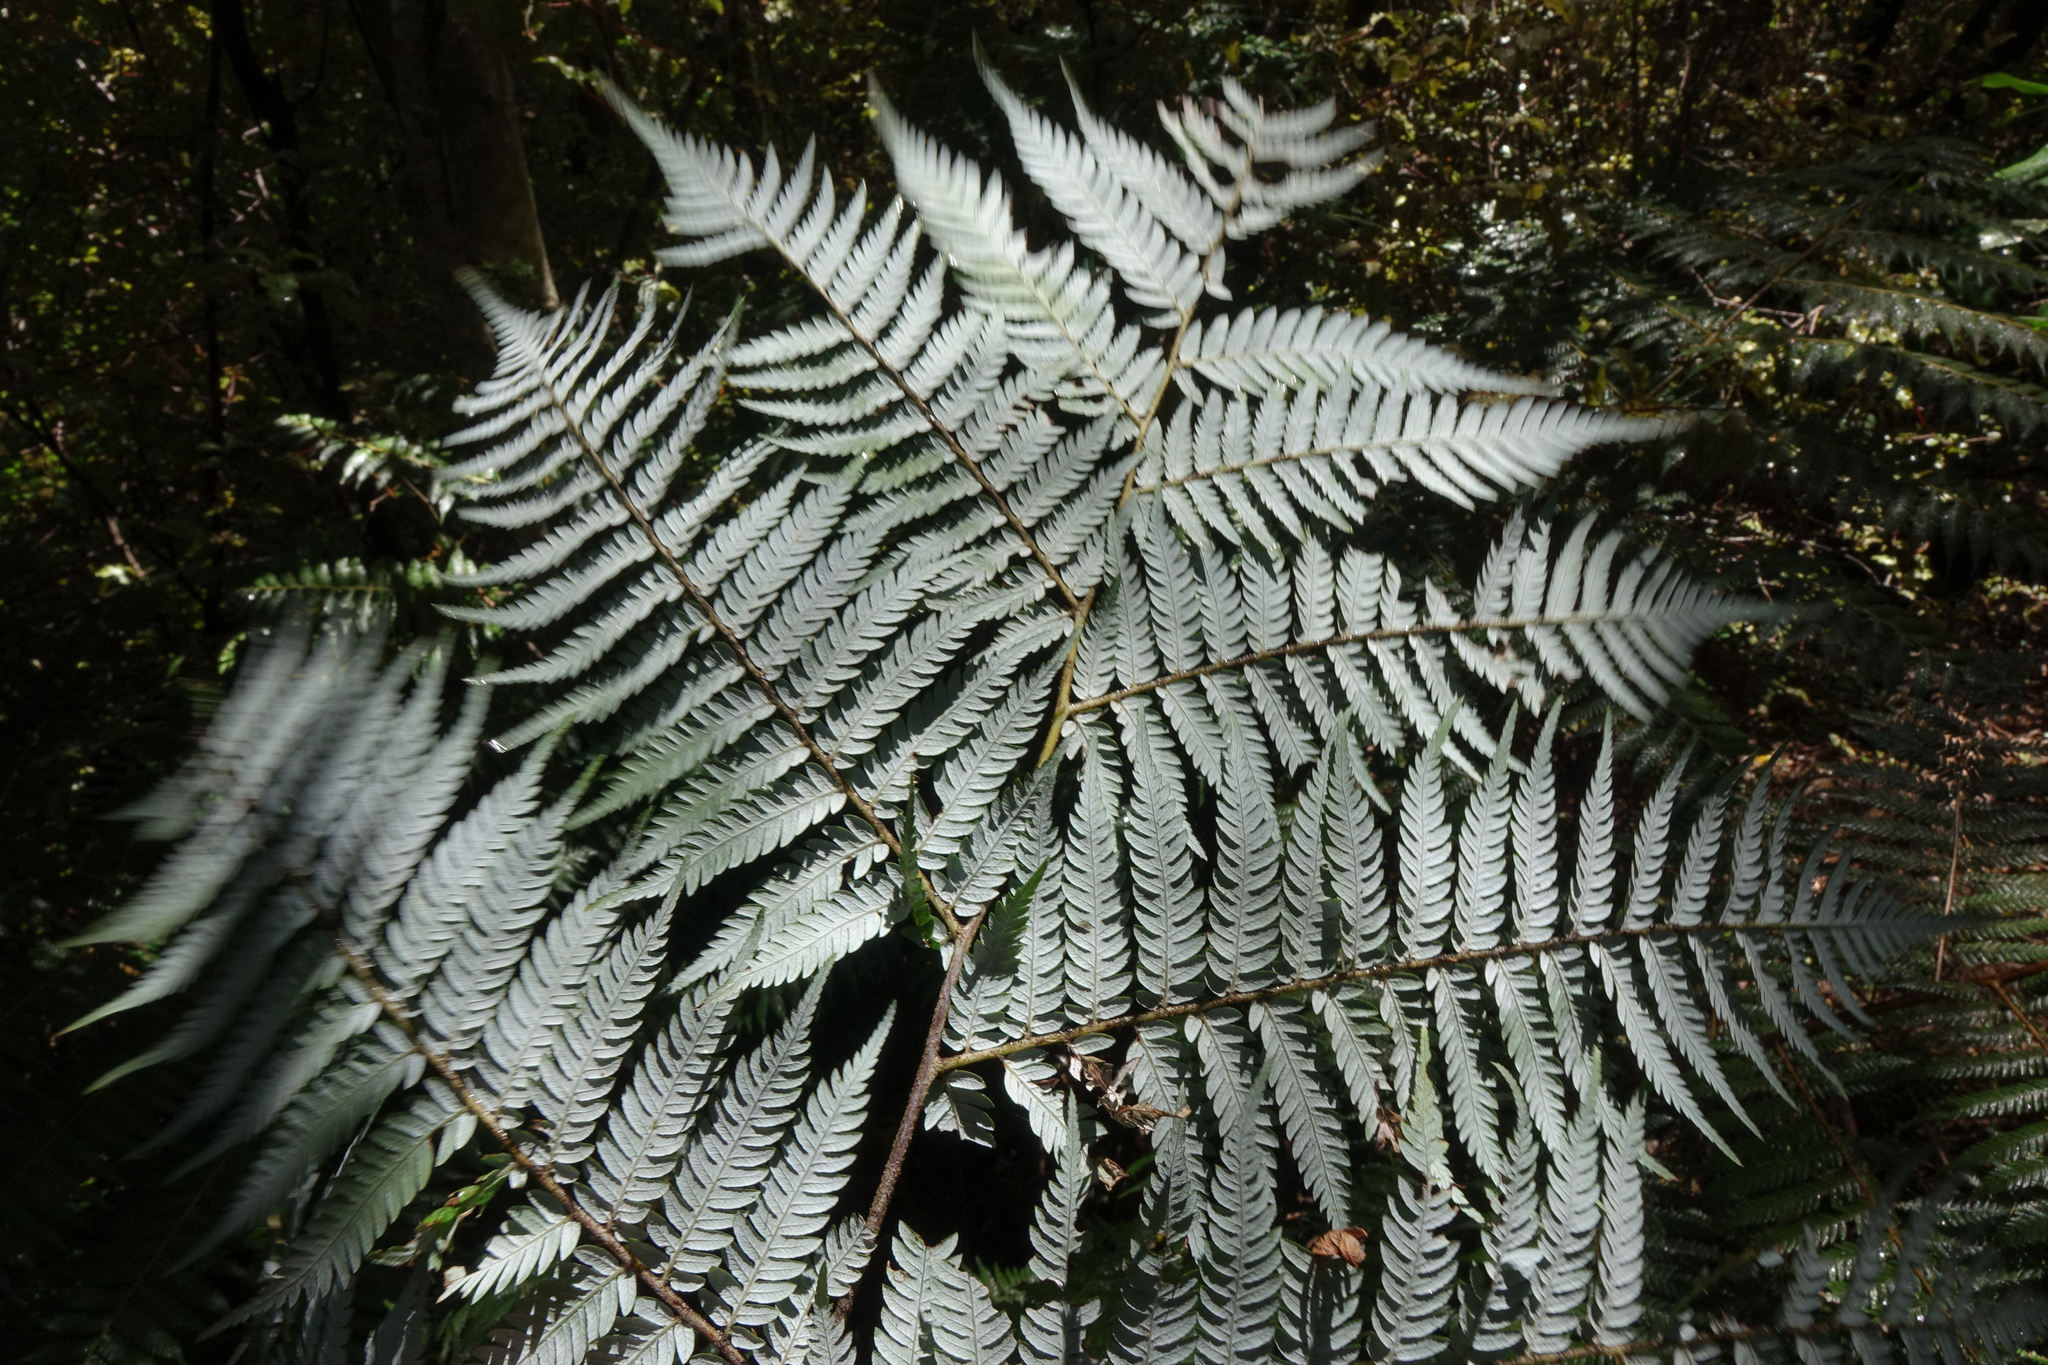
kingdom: Plantae
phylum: Tracheophyta
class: Polypodiopsida
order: Cyatheales
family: Cyatheaceae
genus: Alsophila
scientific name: Alsophila dealbata
